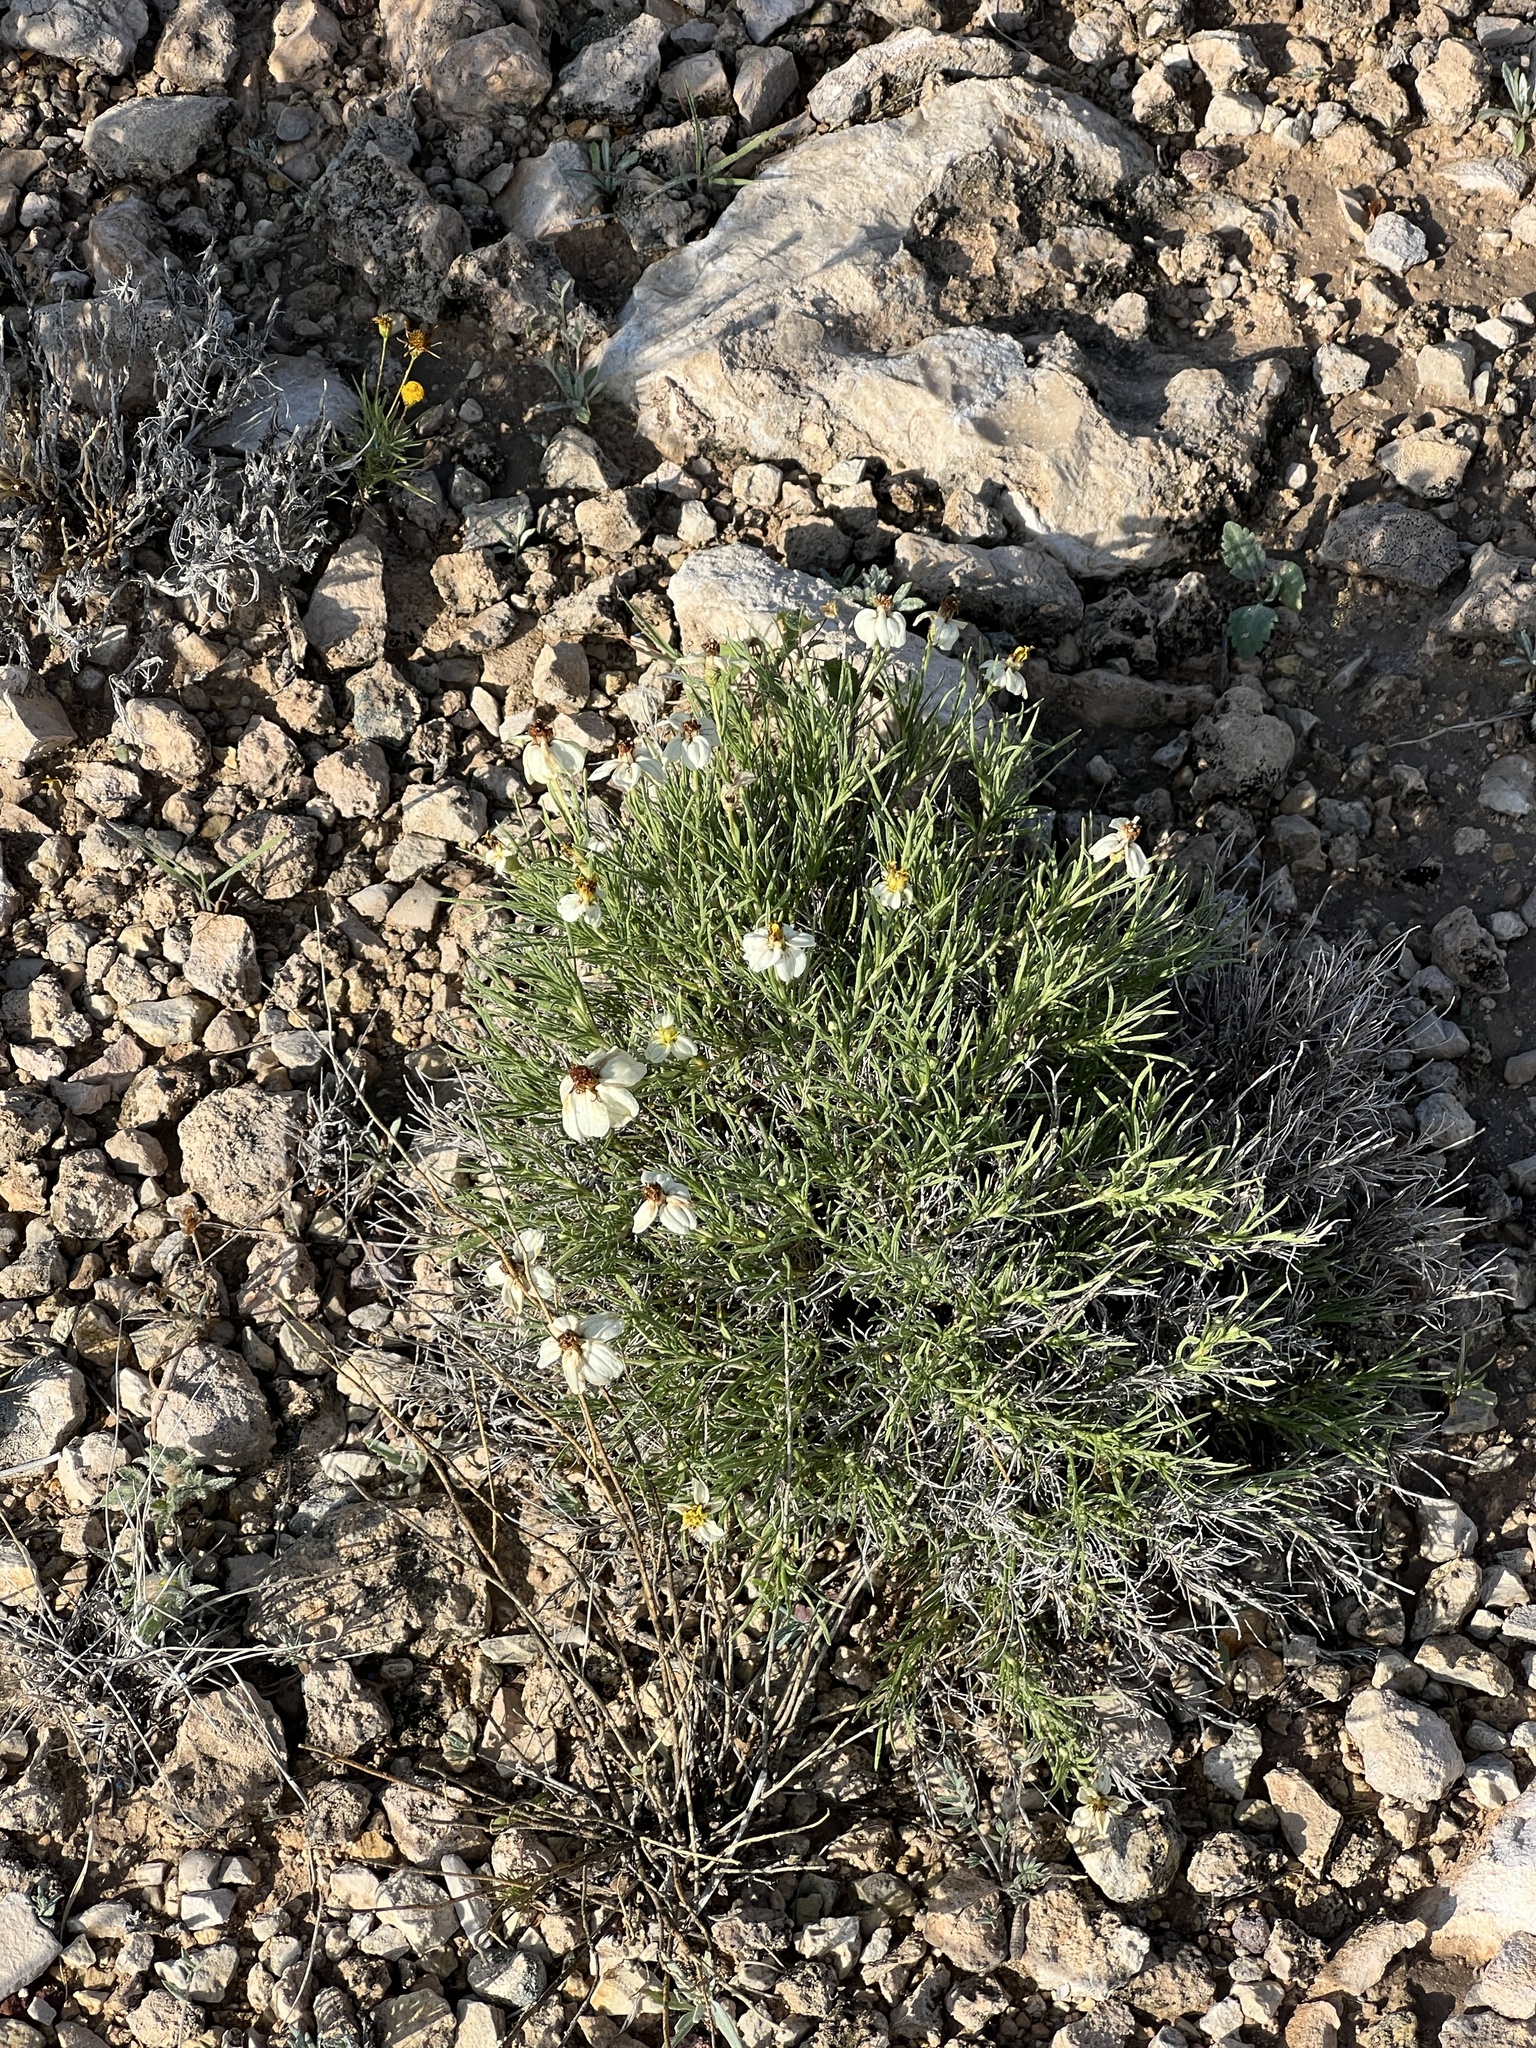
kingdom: Plantae
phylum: Tracheophyta
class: Magnoliopsida
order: Asterales
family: Asteraceae
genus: Zinnia
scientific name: Zinnia acerosa
